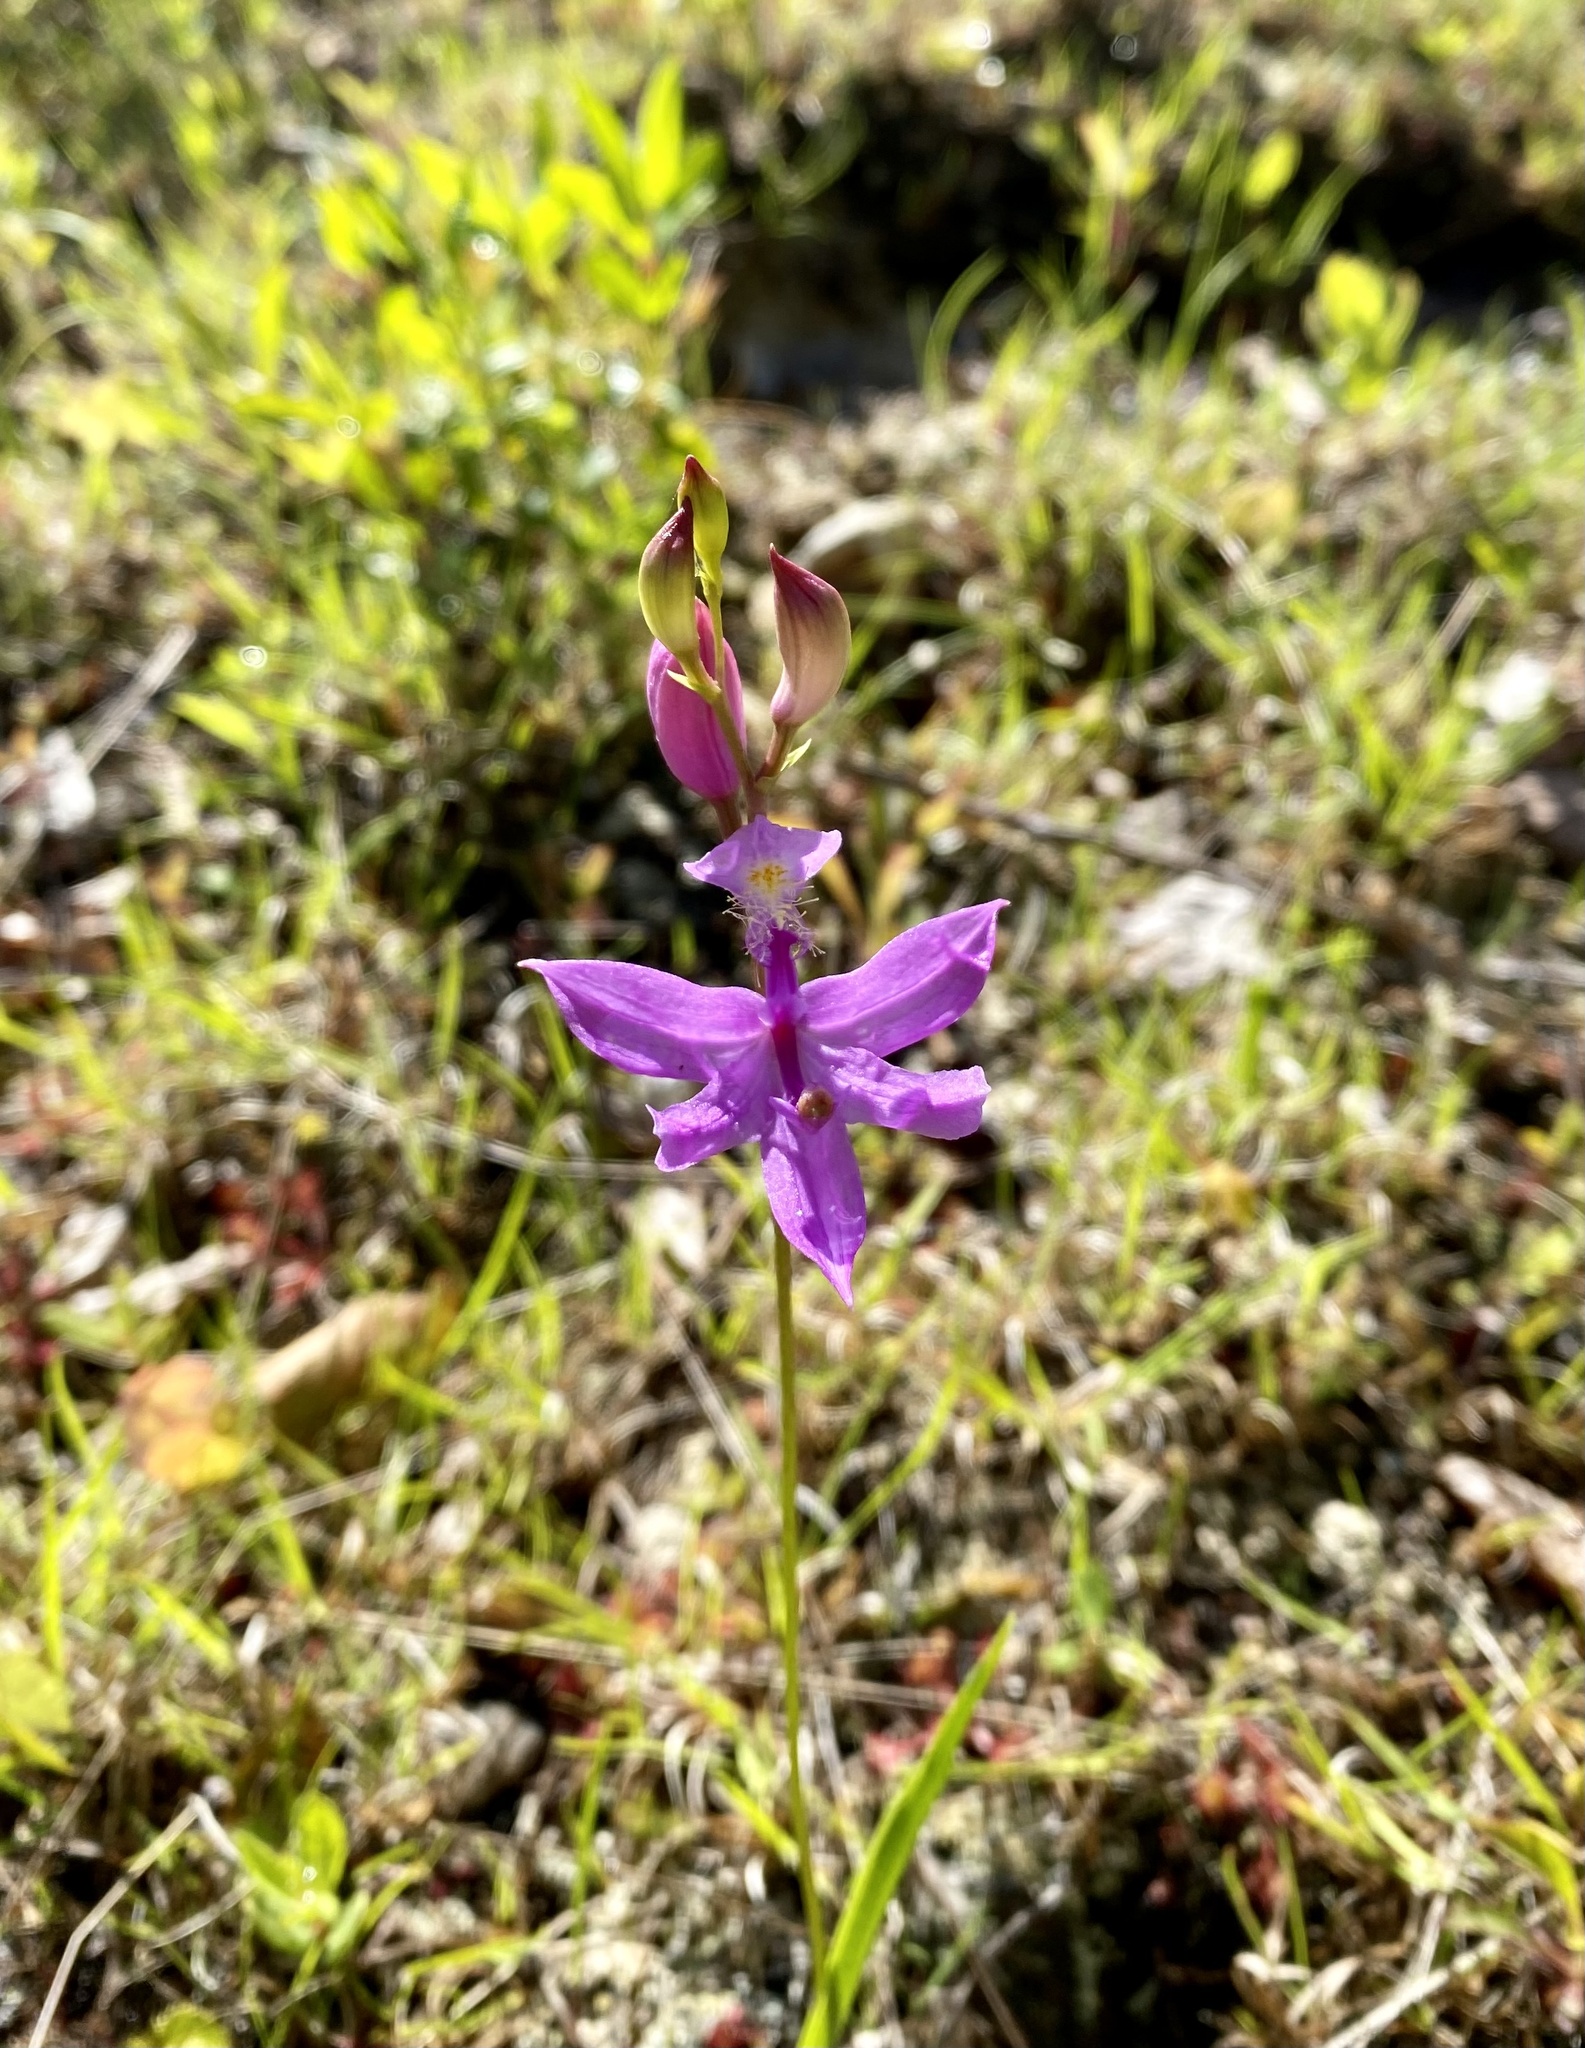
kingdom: Plantae
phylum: Tracheophyta
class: Liliopsida
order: Asparagales
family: Orchidaceae
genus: Calopogon
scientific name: Calopogon tuberosus
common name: Grass-pink
